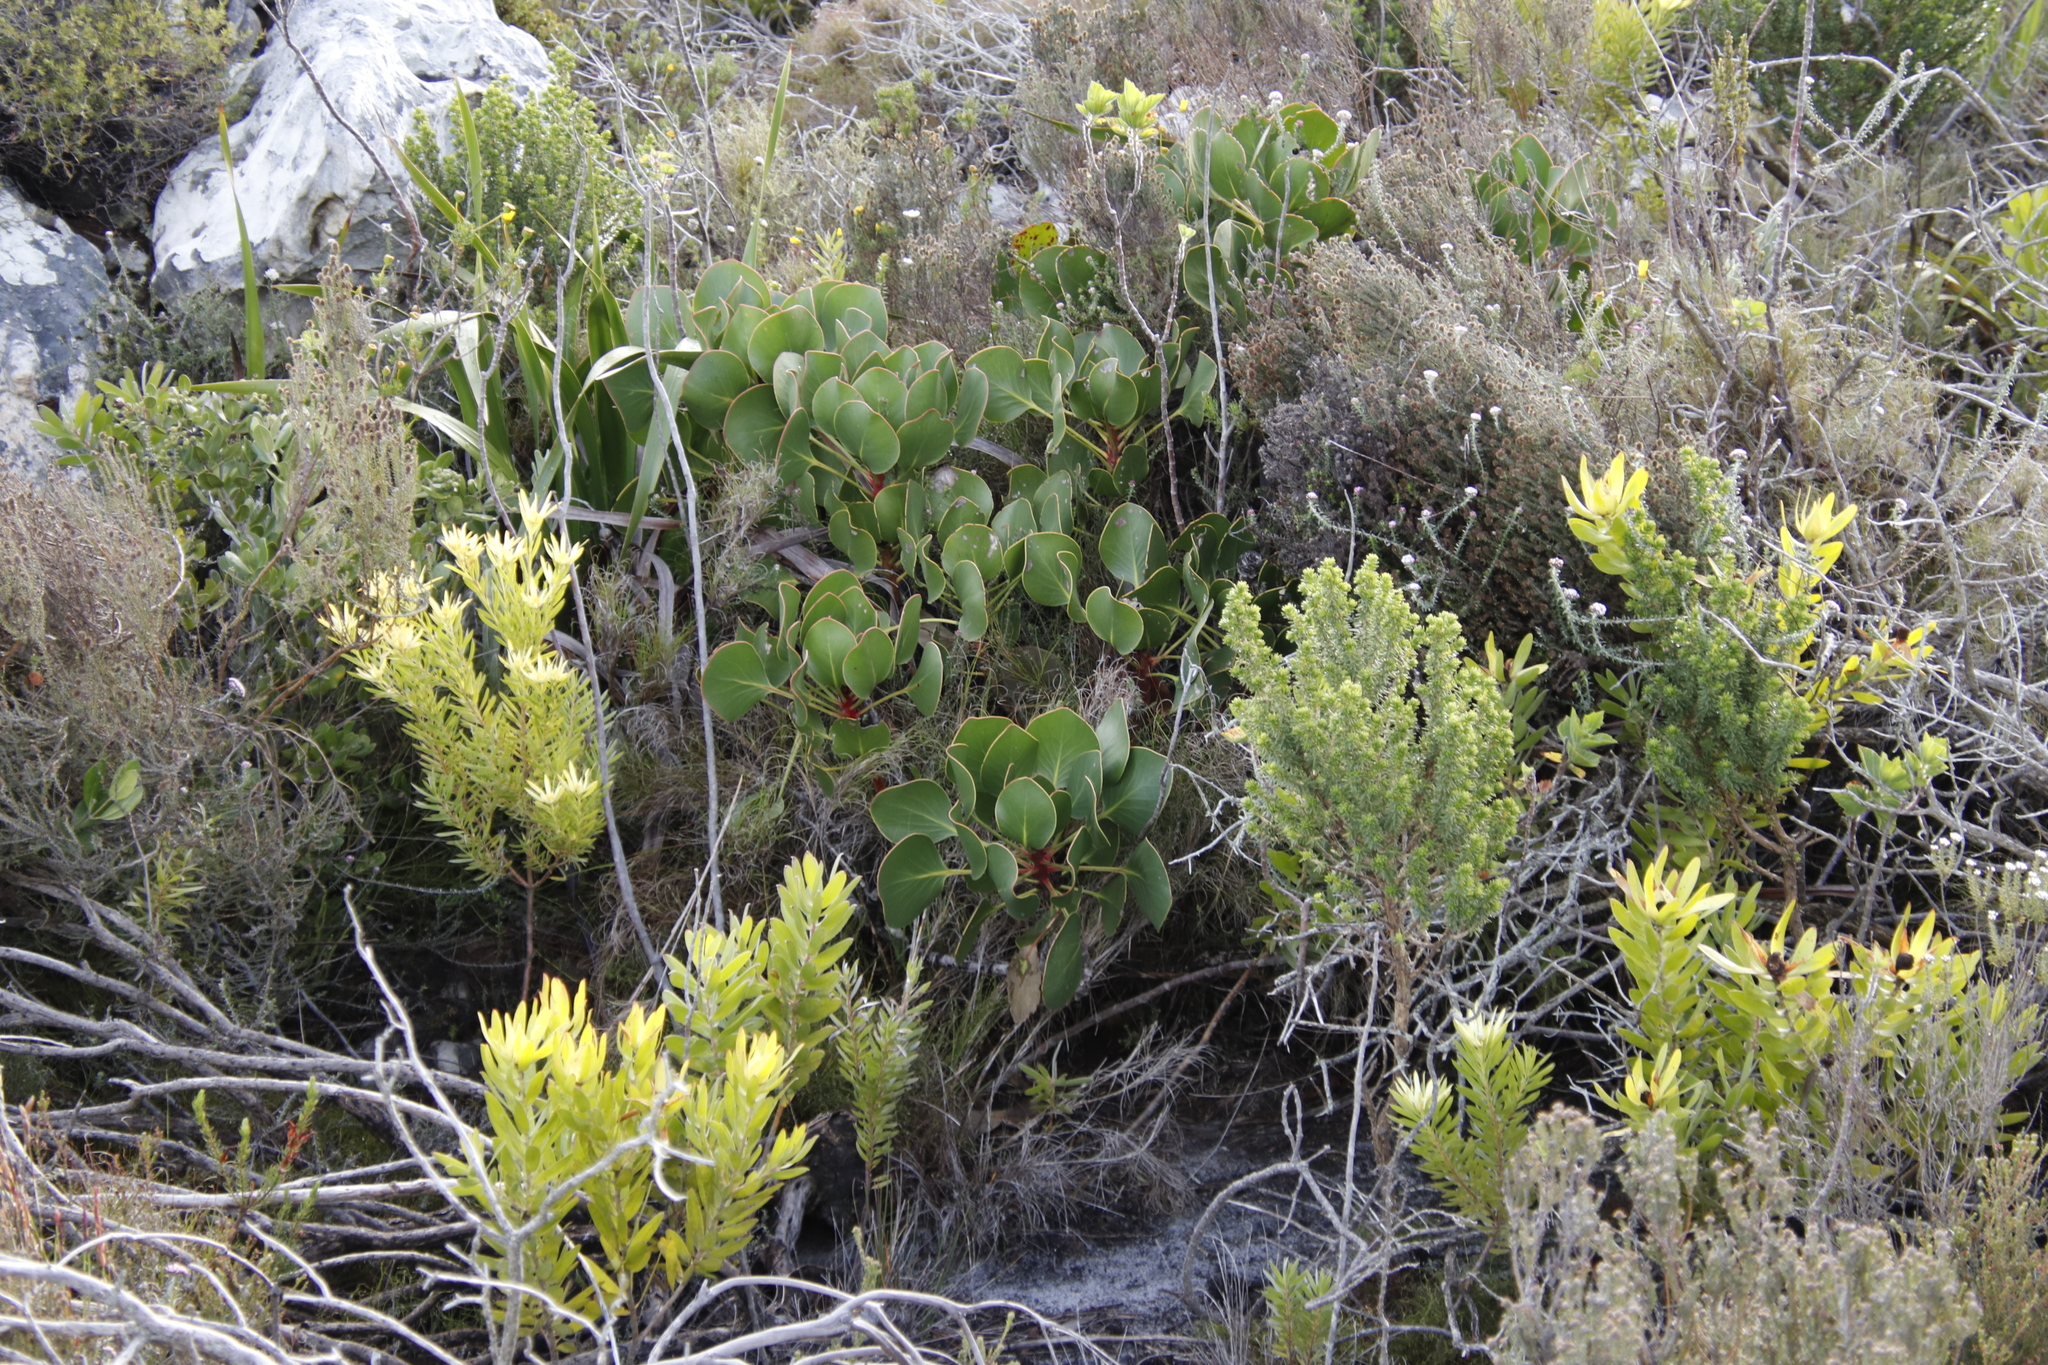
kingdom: Plantae
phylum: Tracheophyta
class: Magnoliopsida
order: Proteales
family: Proteaceae
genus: Protea
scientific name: Protea cynaroides
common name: King protea
